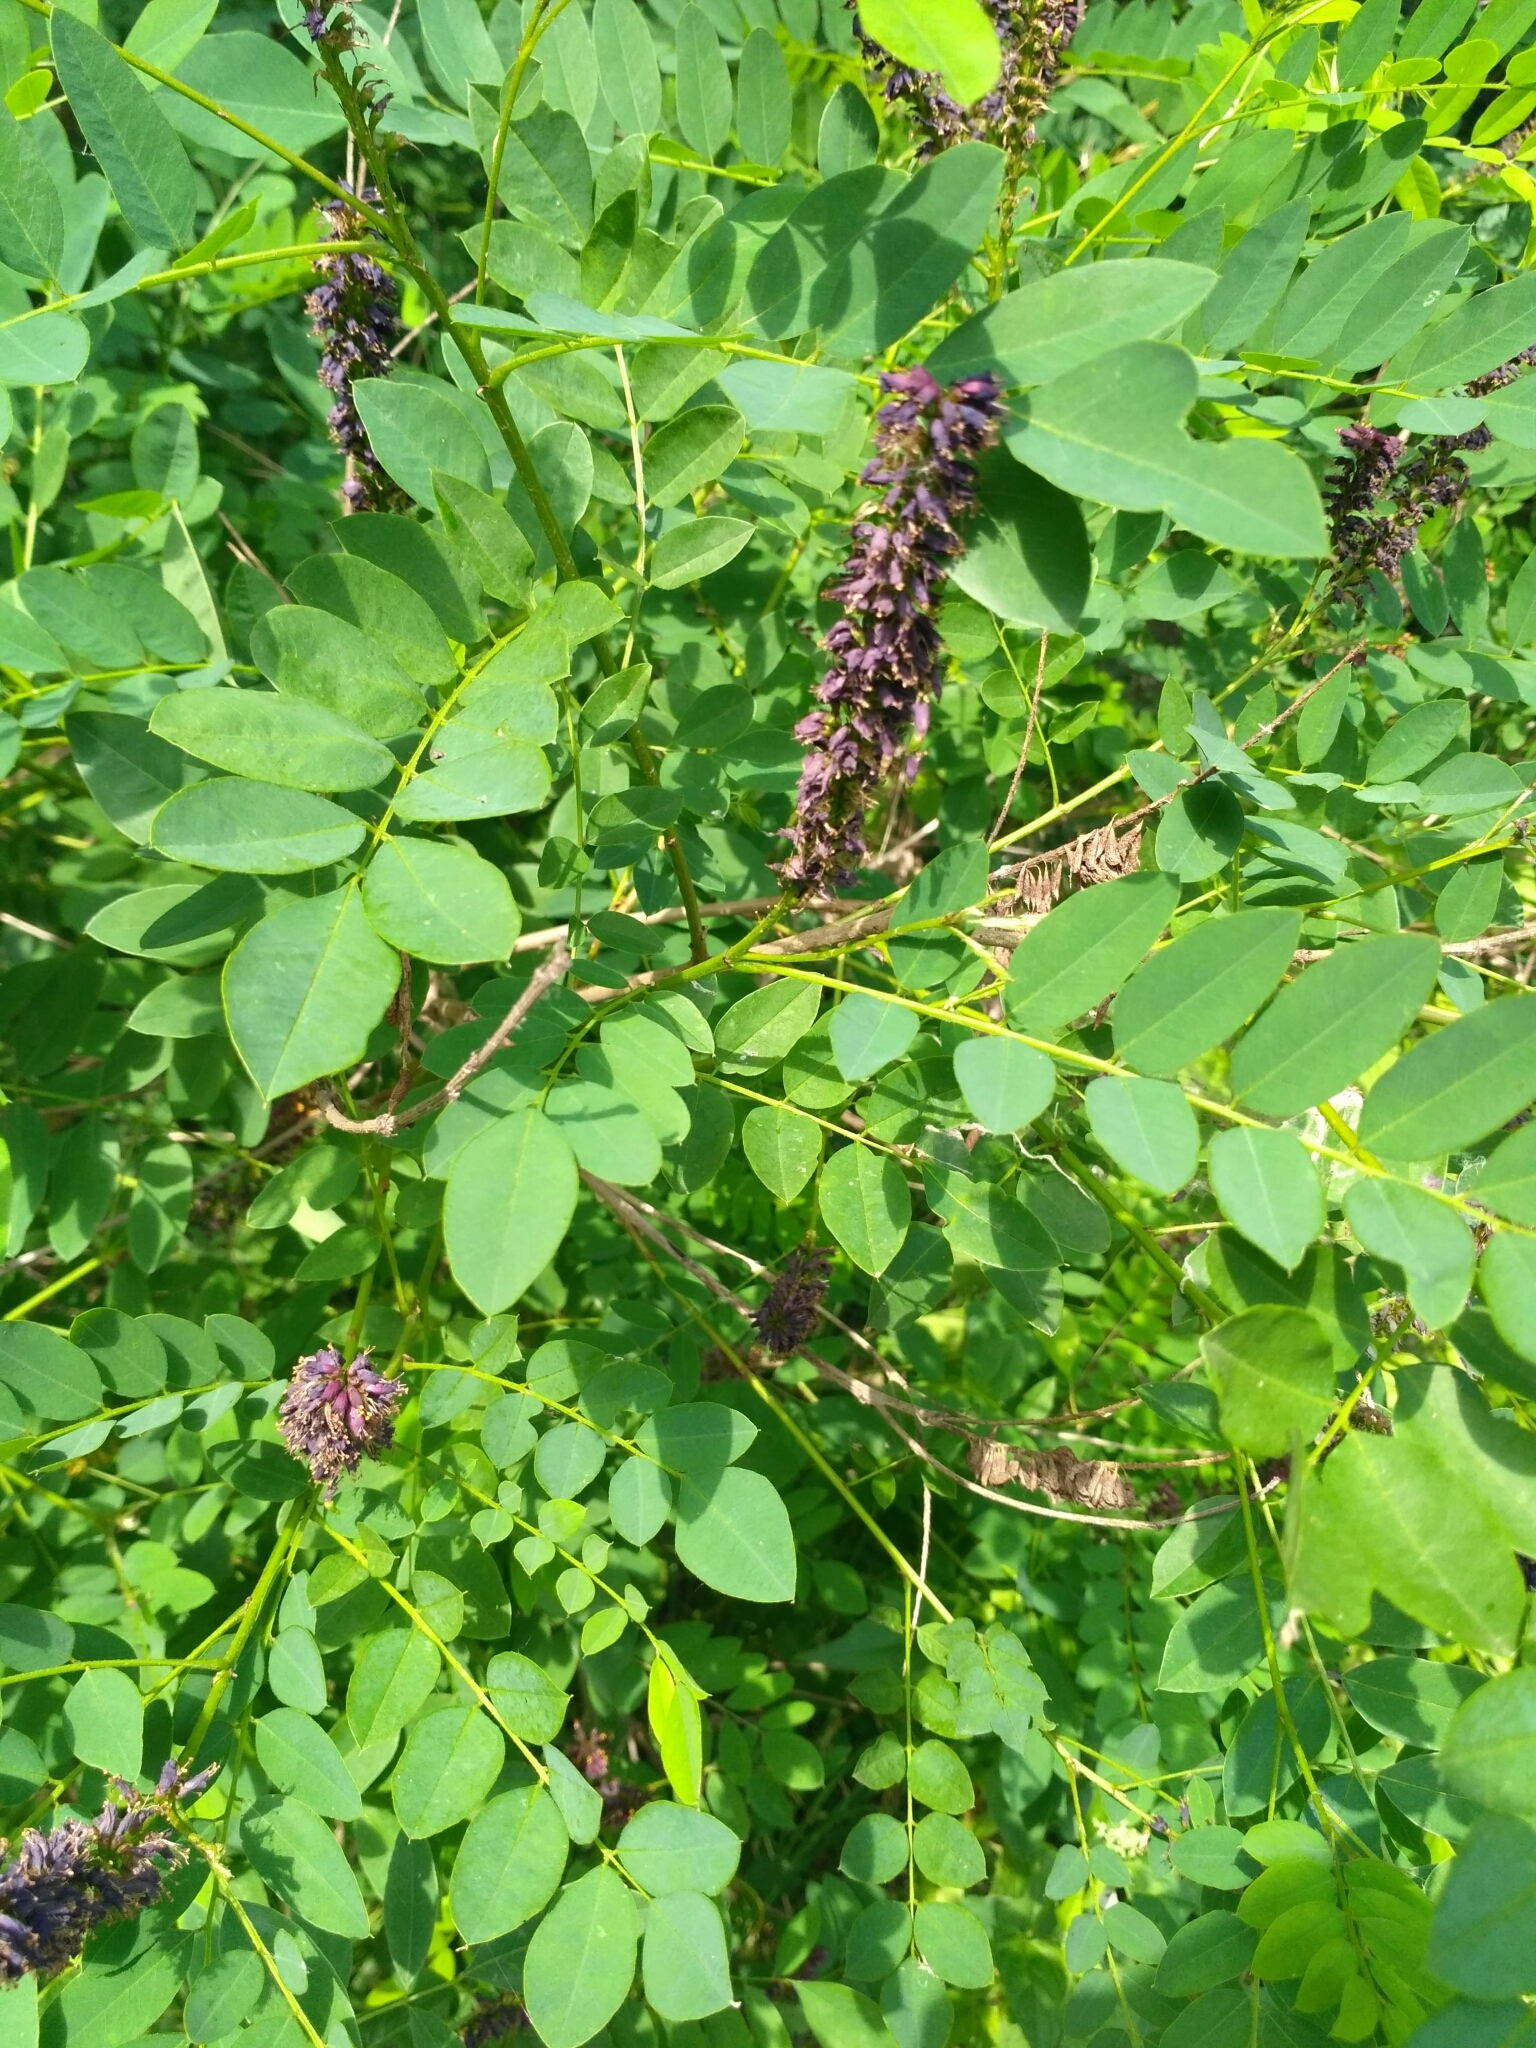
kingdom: Plantae
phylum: Tracheophyta
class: Magnoliopsida
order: Fabales
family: Fabaceae
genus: Amorpha
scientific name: Amorpha fruticosa
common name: False indigo
